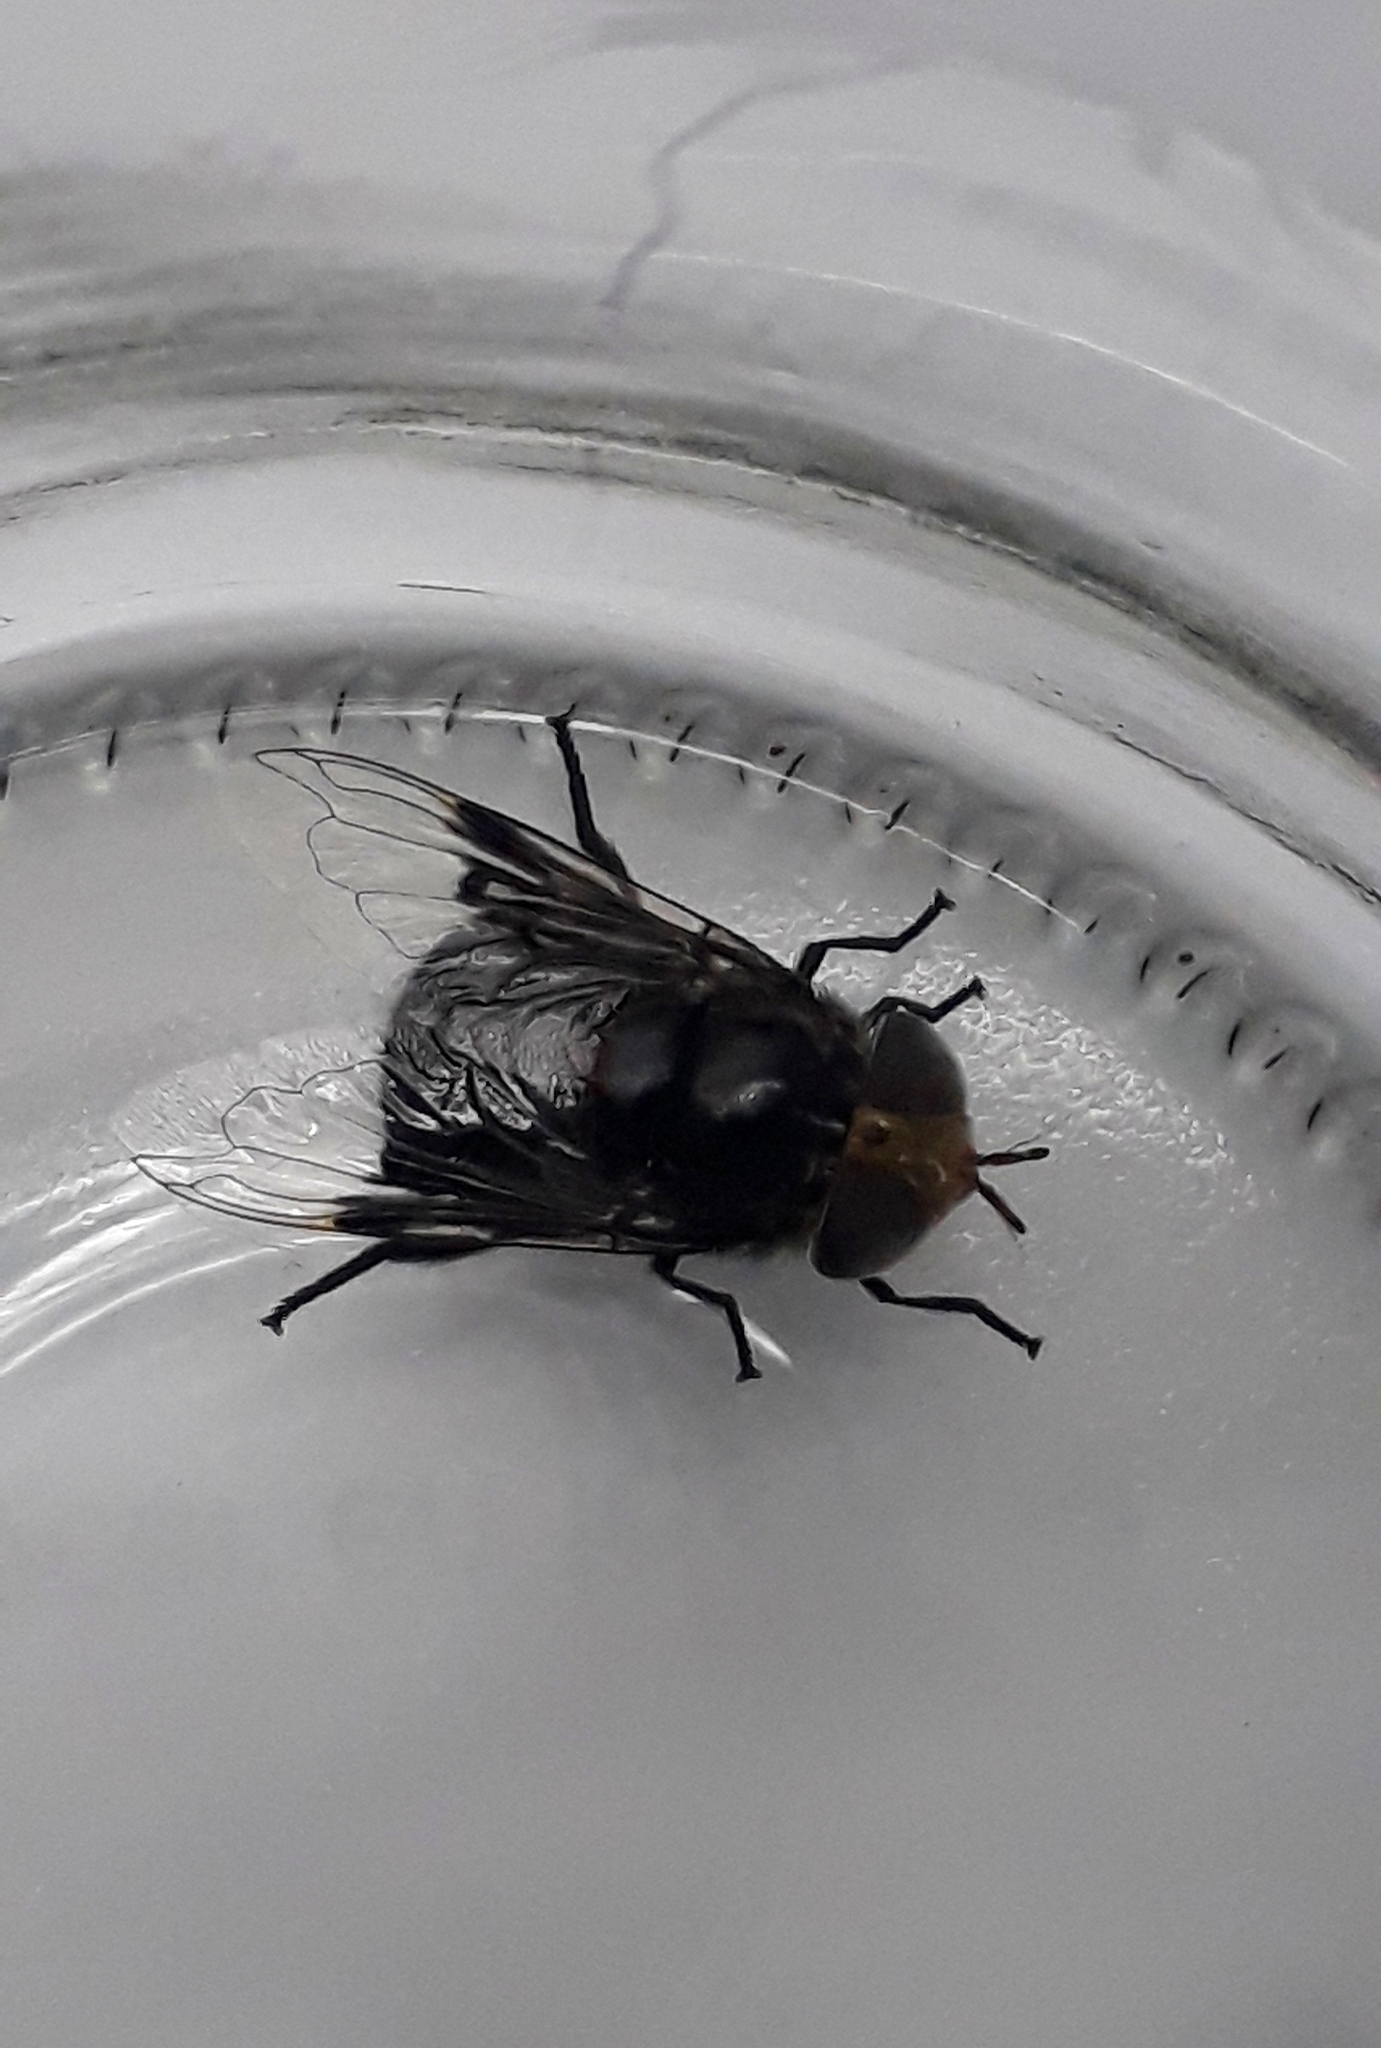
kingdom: Animalia
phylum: Arthropoda
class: Insecta
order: Diptera
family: Syrphidae
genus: Copestylum
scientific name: Copestylum spinigerum
